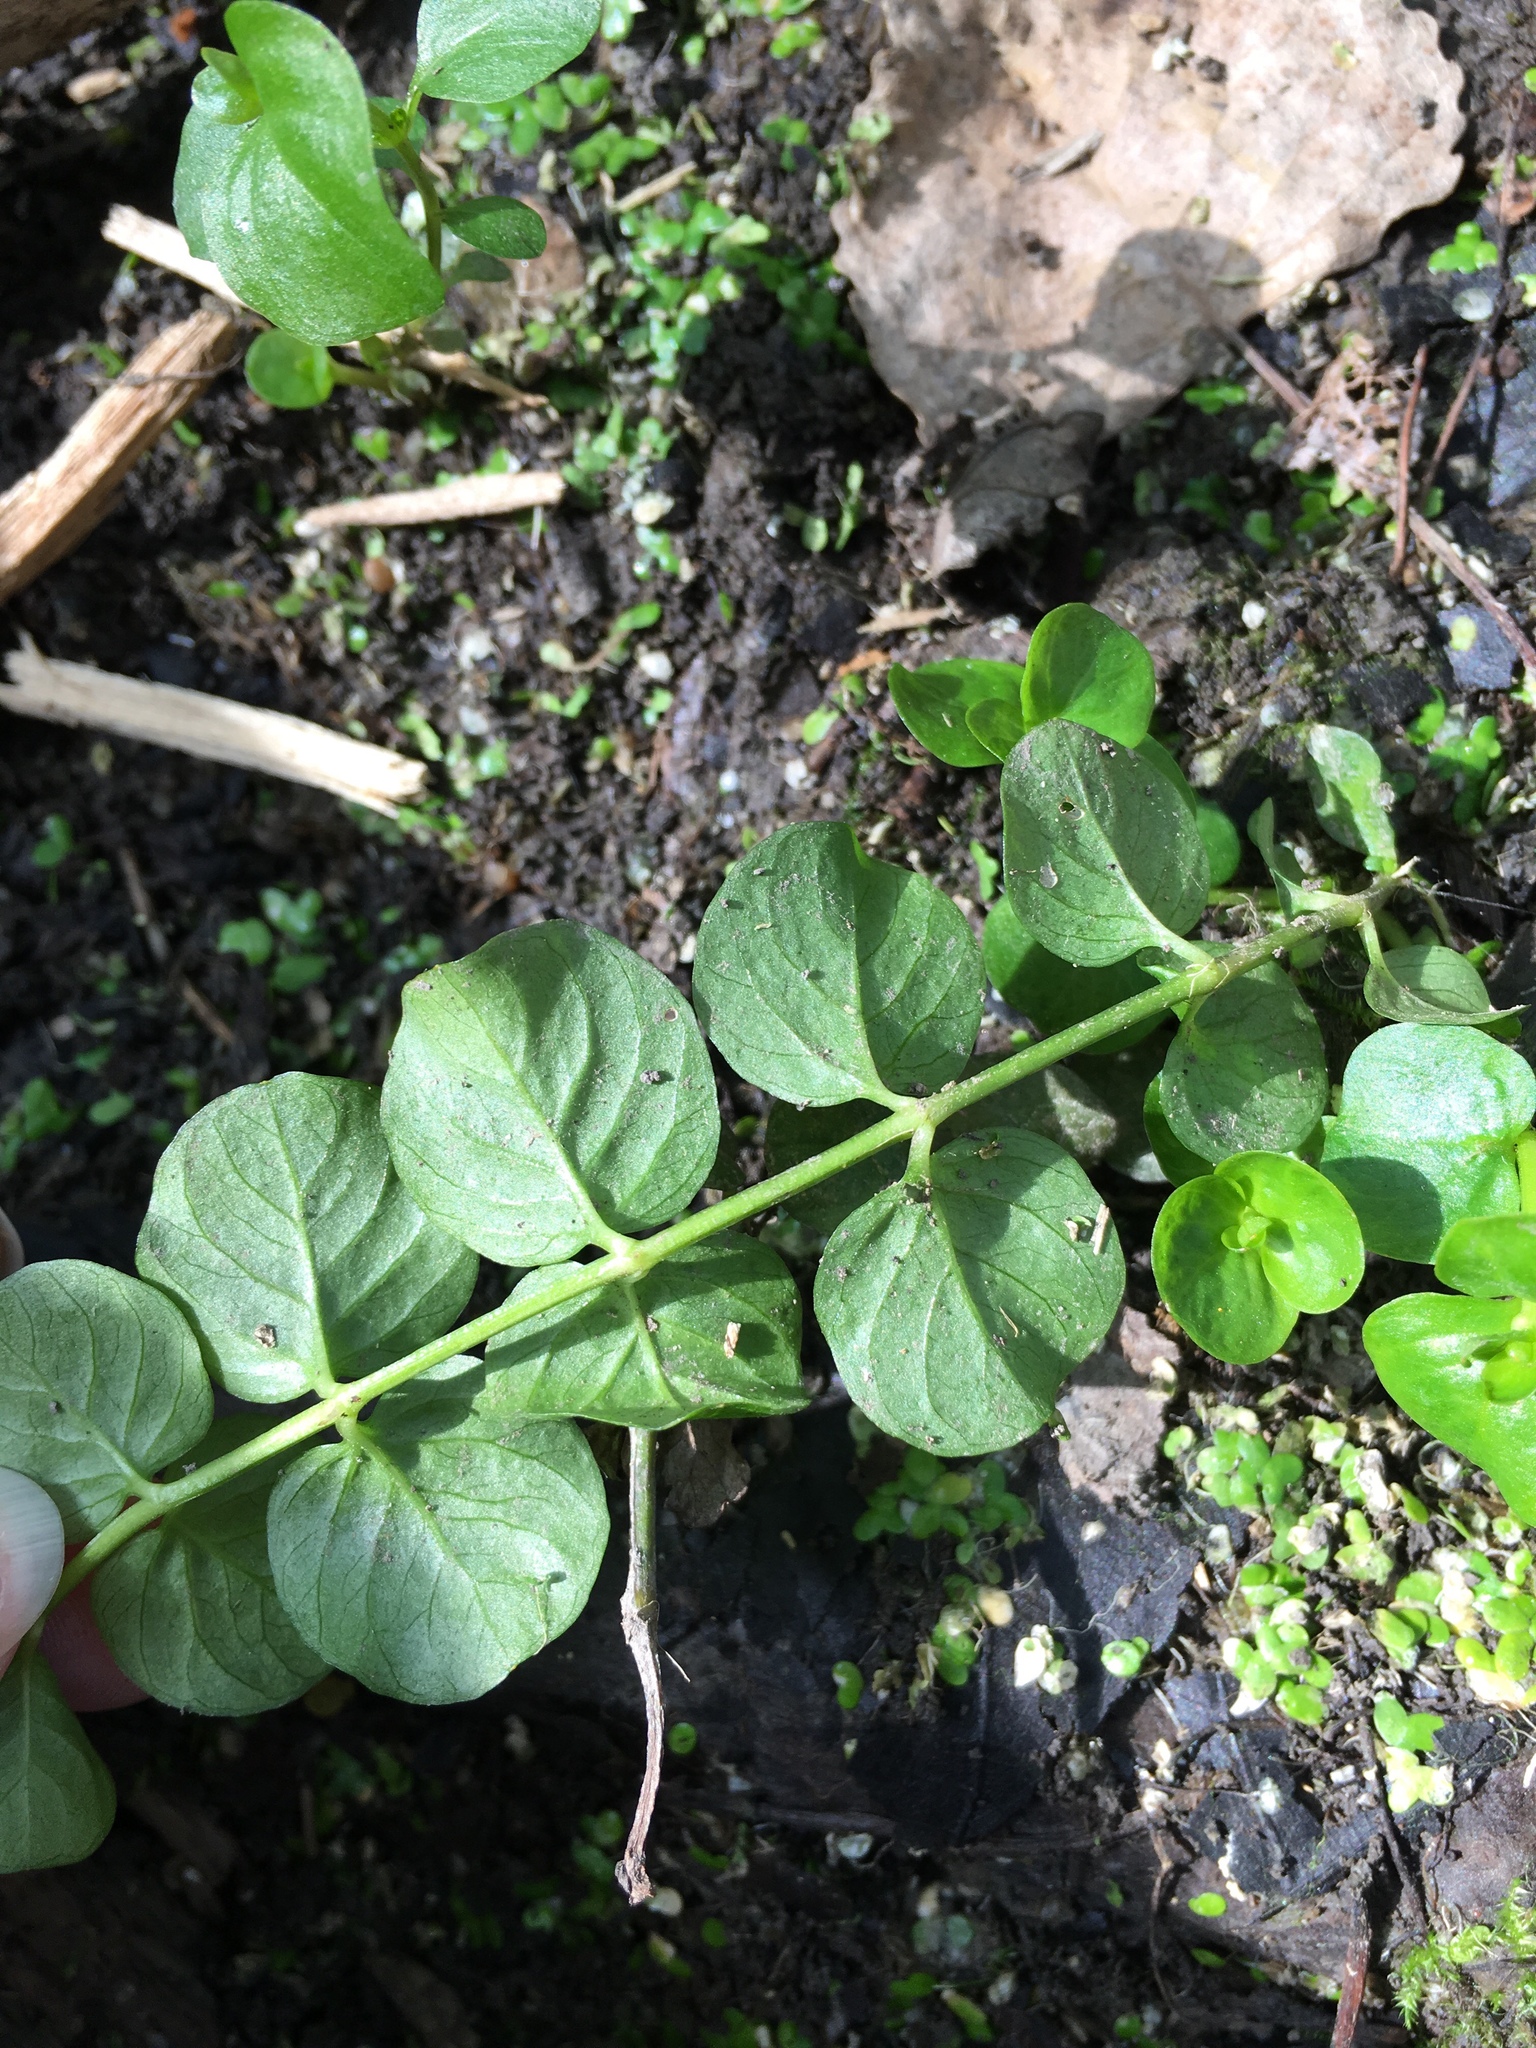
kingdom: Plantae
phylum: Tracheophyta
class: Magnoliopsida
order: Ericales
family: Primulaceae
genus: Lysimachia
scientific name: Lysimachia nummularia
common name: Moneywort
